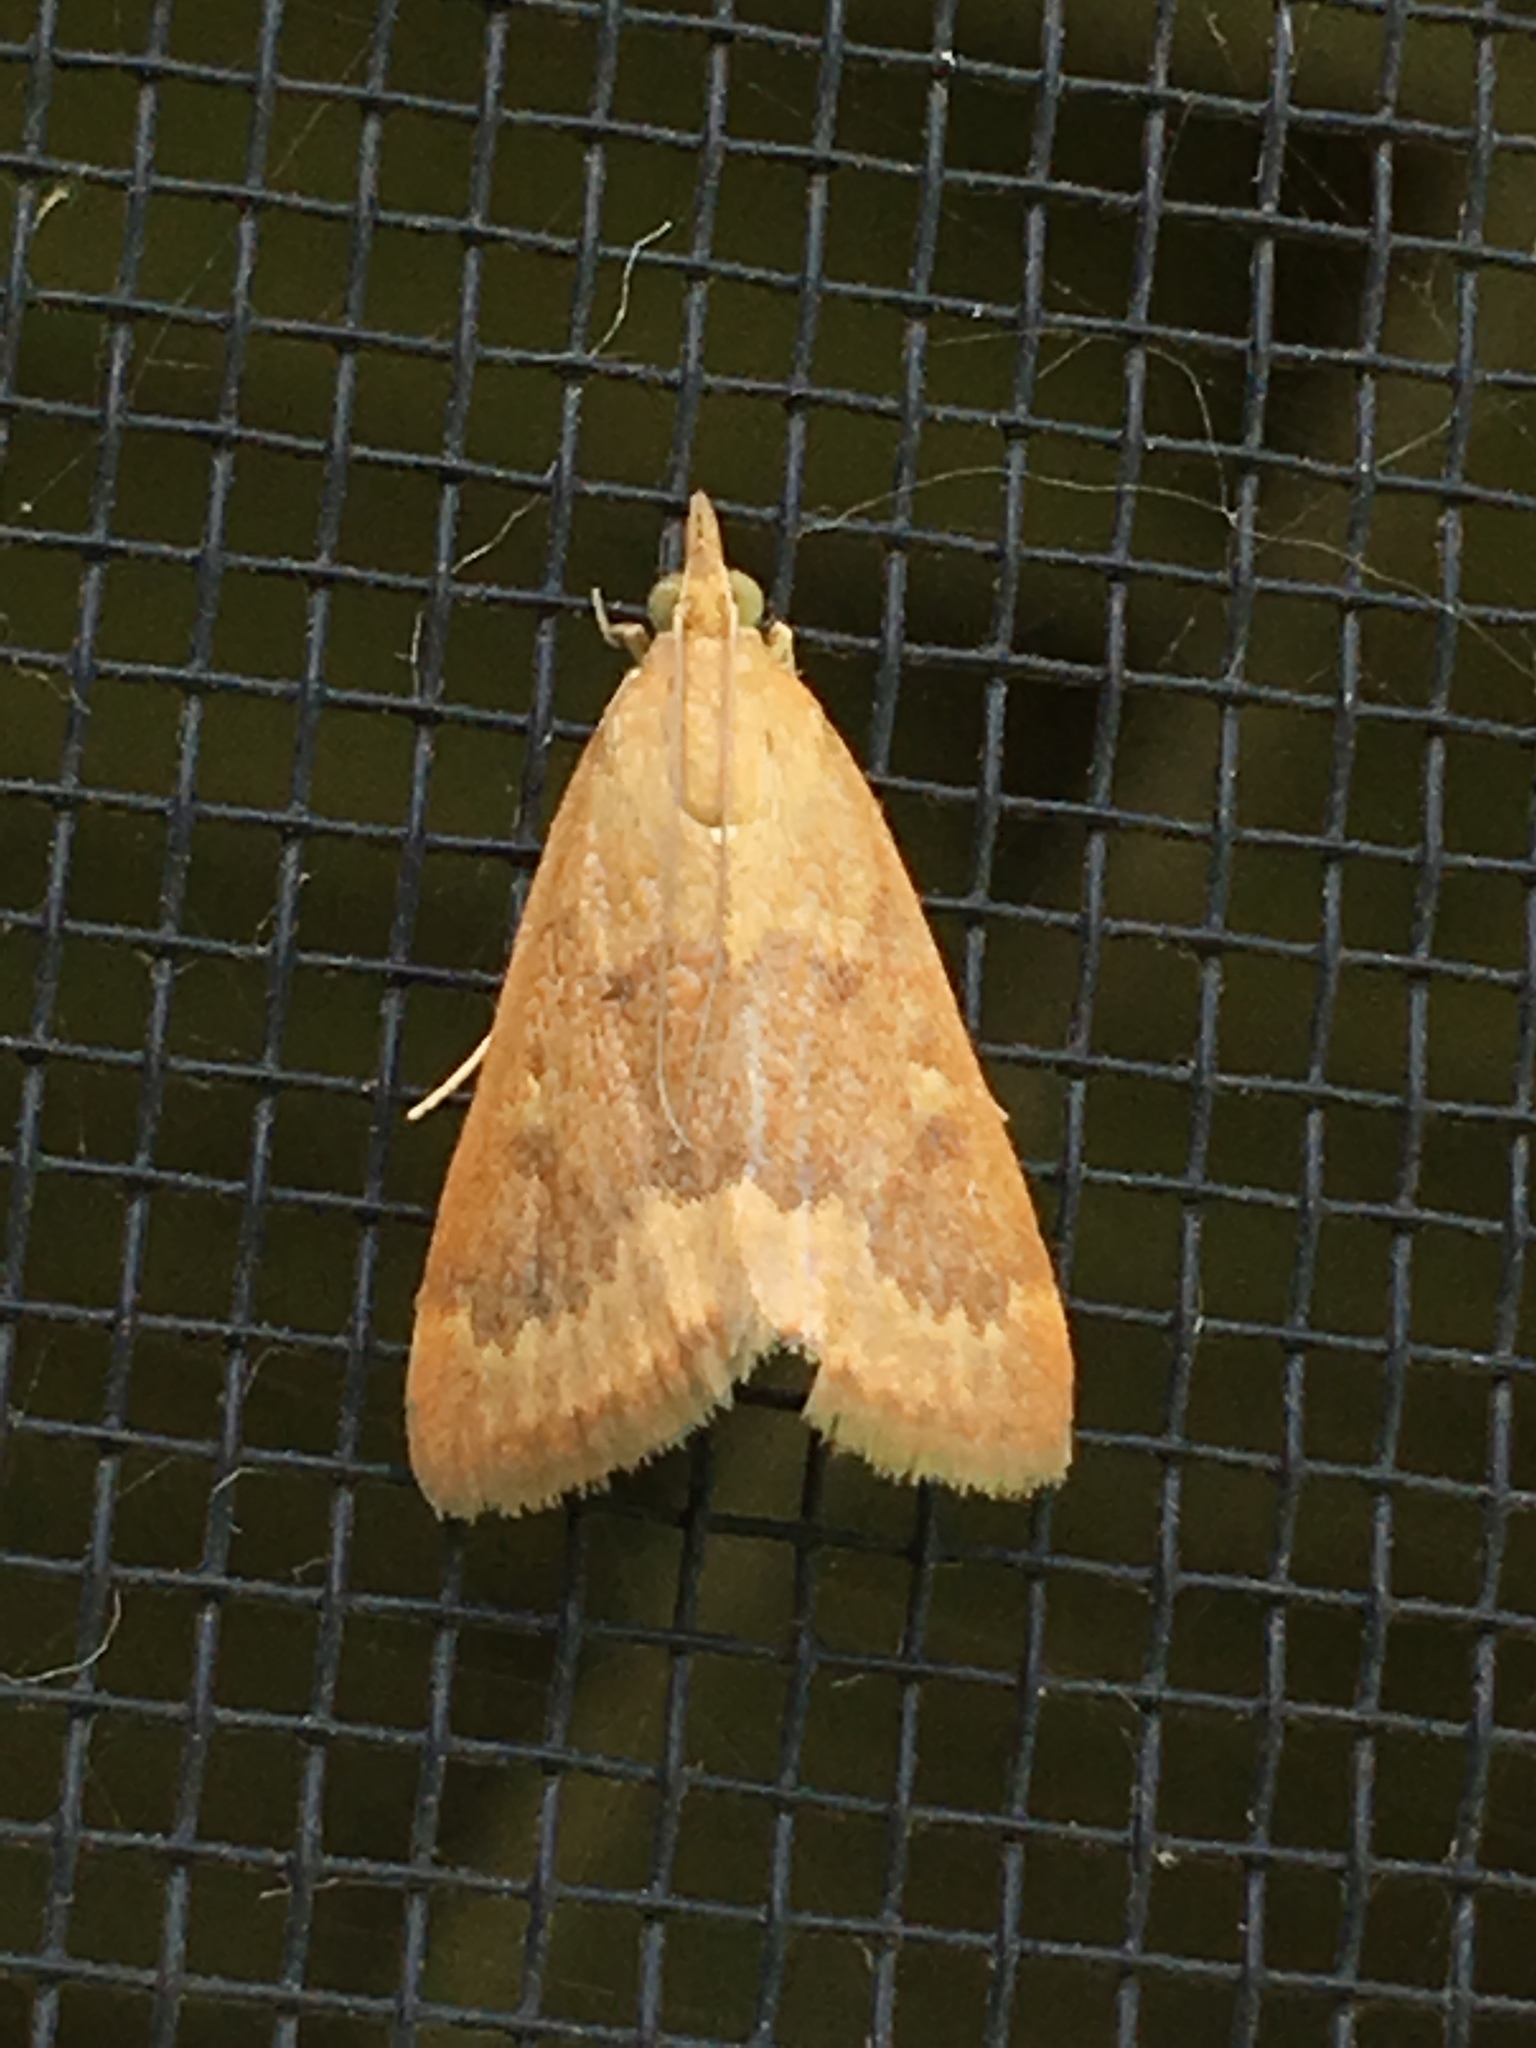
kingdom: Animalia
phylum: Arthropoda
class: Insecta
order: Lepidoptera
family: Crambidae
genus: Achyra
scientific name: Achyra rantalis
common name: Garden webworm
